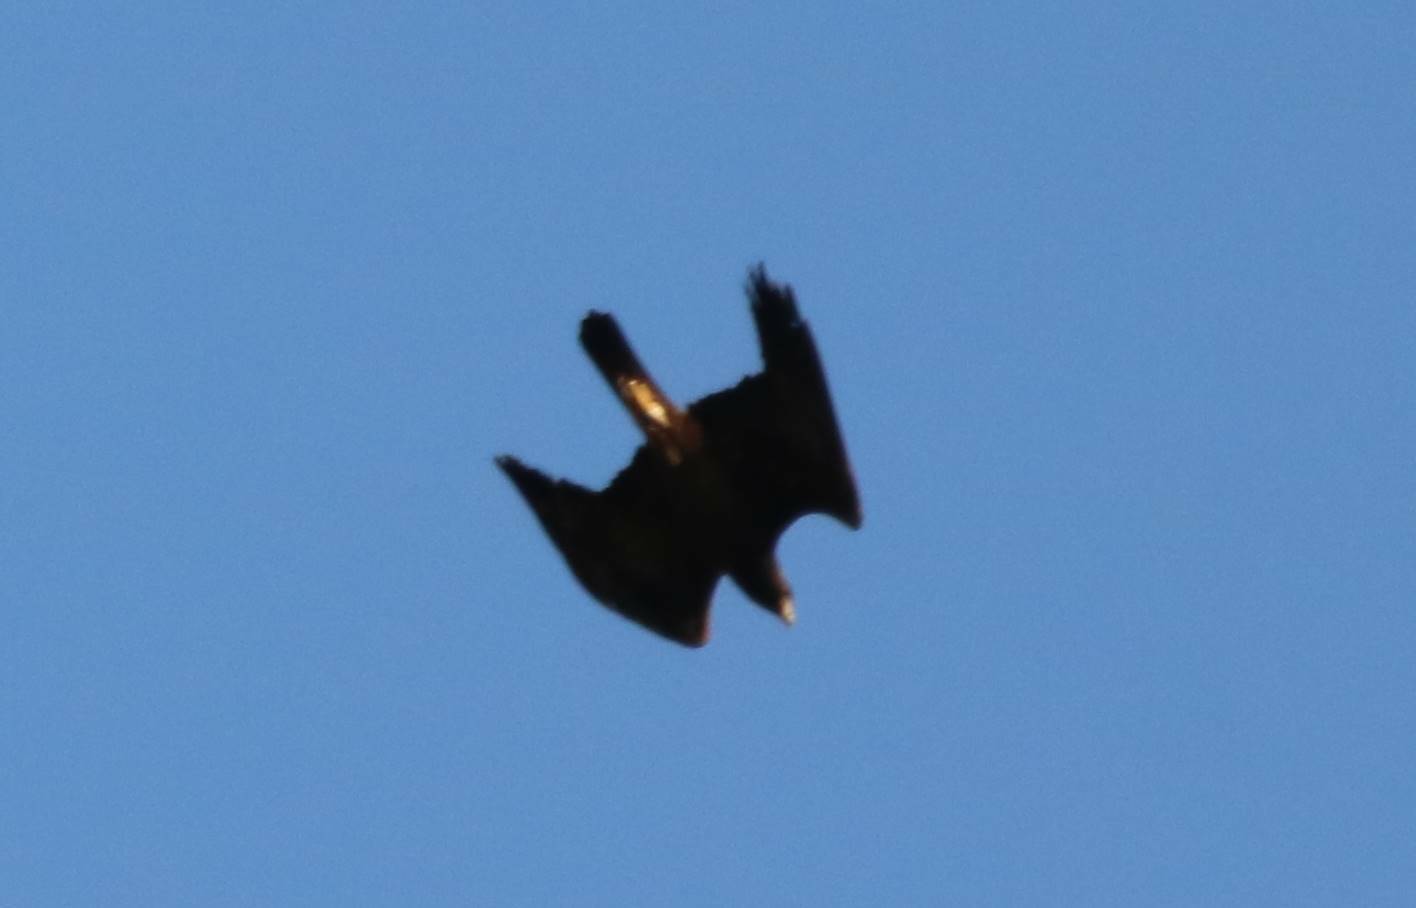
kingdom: Animalia
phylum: Chordata
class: Aves
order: Accipitriformes
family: Accipitridae
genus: Aquila
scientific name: Aquila chrysaetos
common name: Golden eagle
